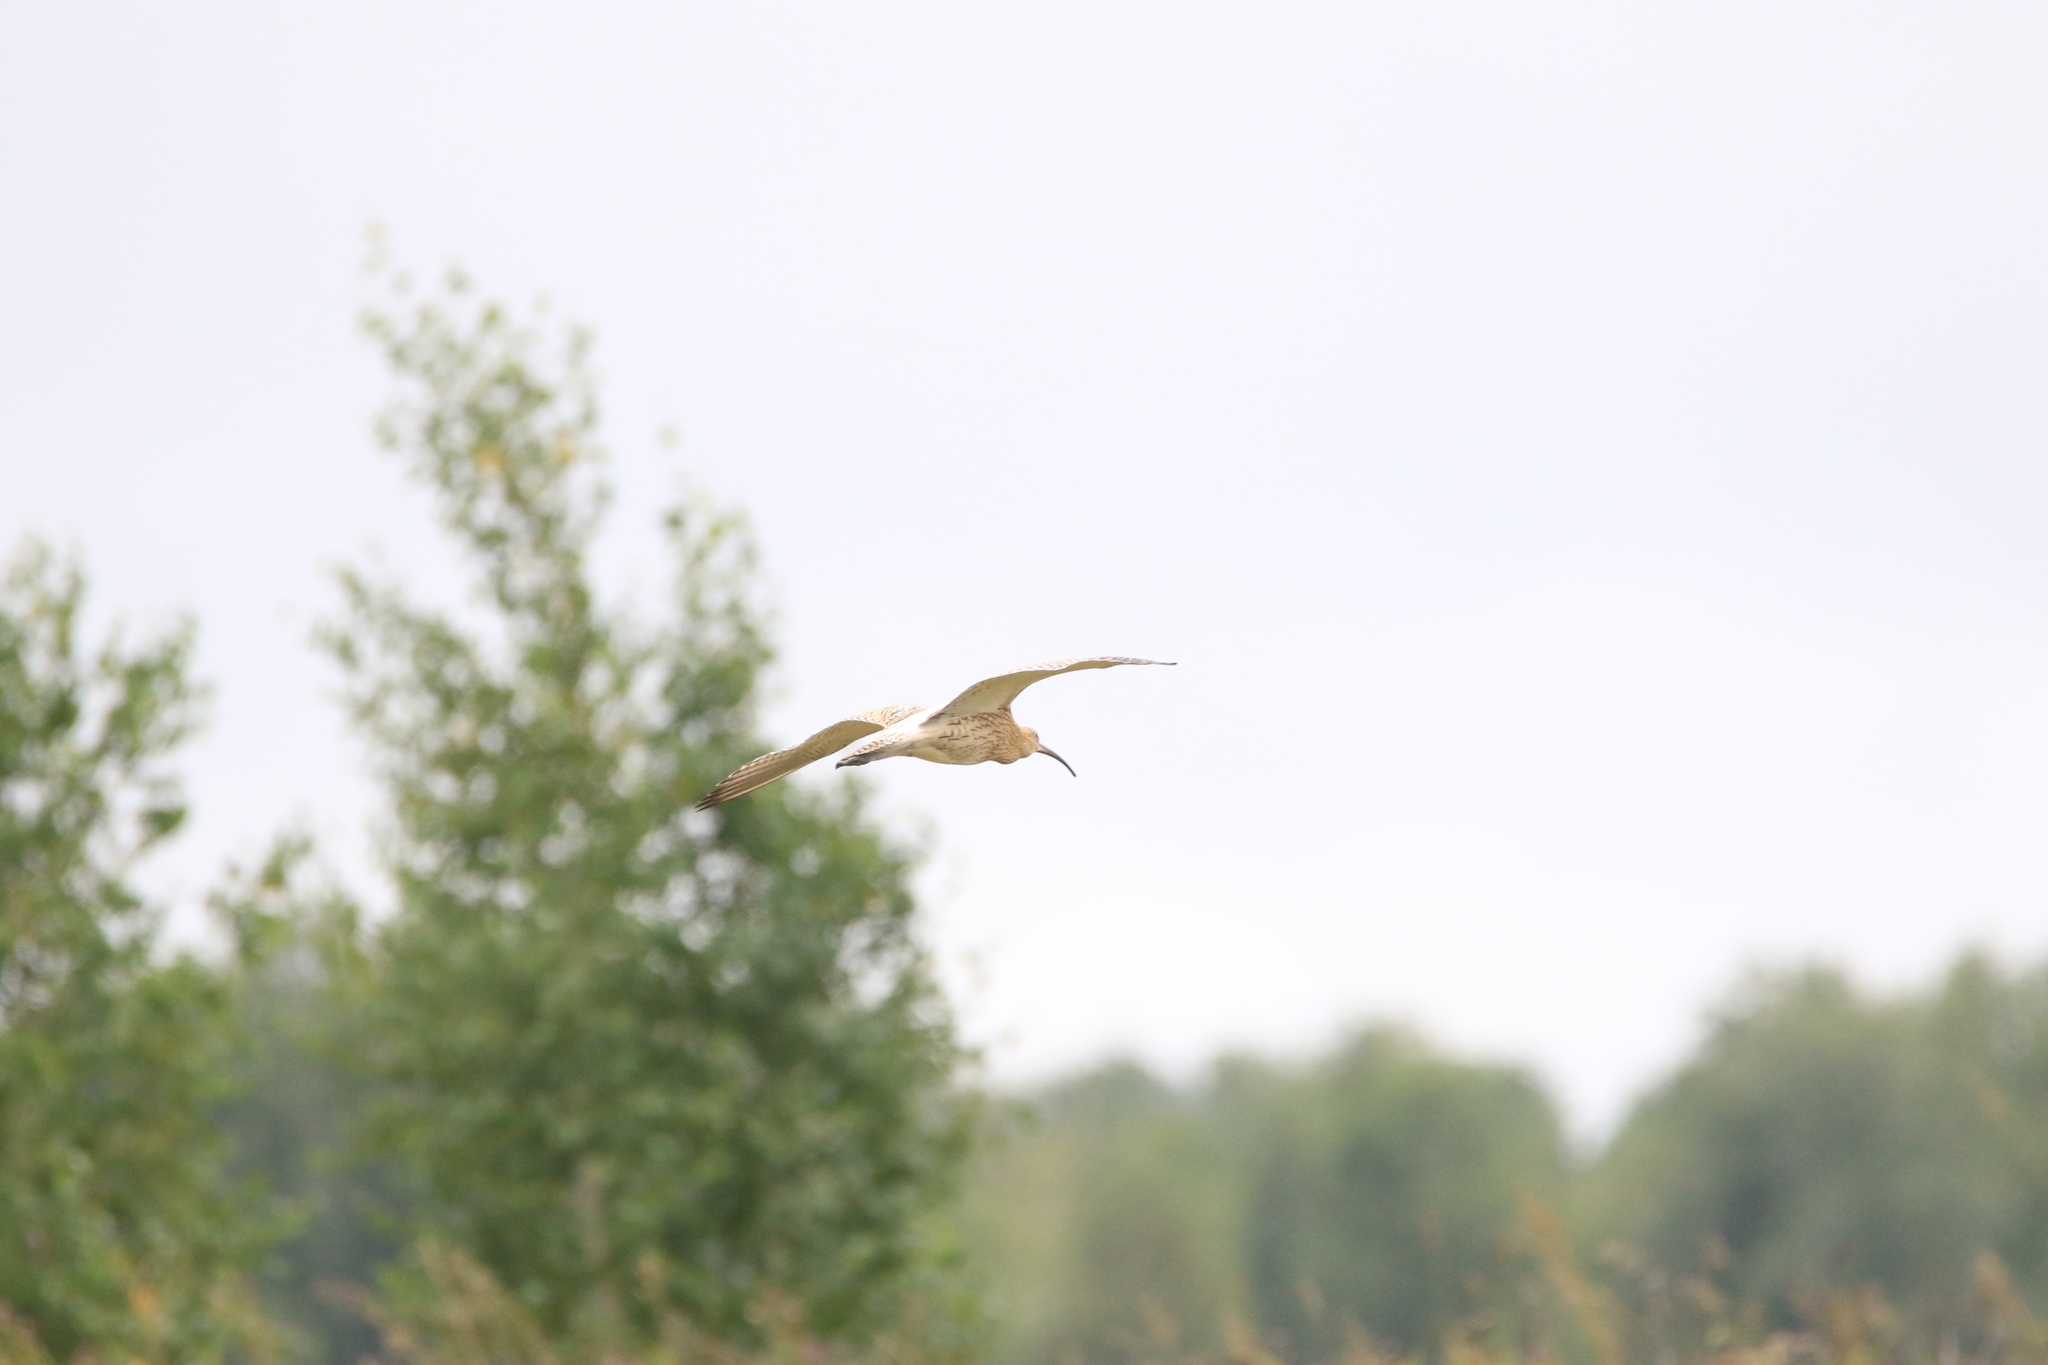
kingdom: Animalia
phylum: Chordata
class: Aves
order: Charadriiformes
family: Scolopacidae
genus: Numenius
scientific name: Numenius arquata
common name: Eurasian curlew
